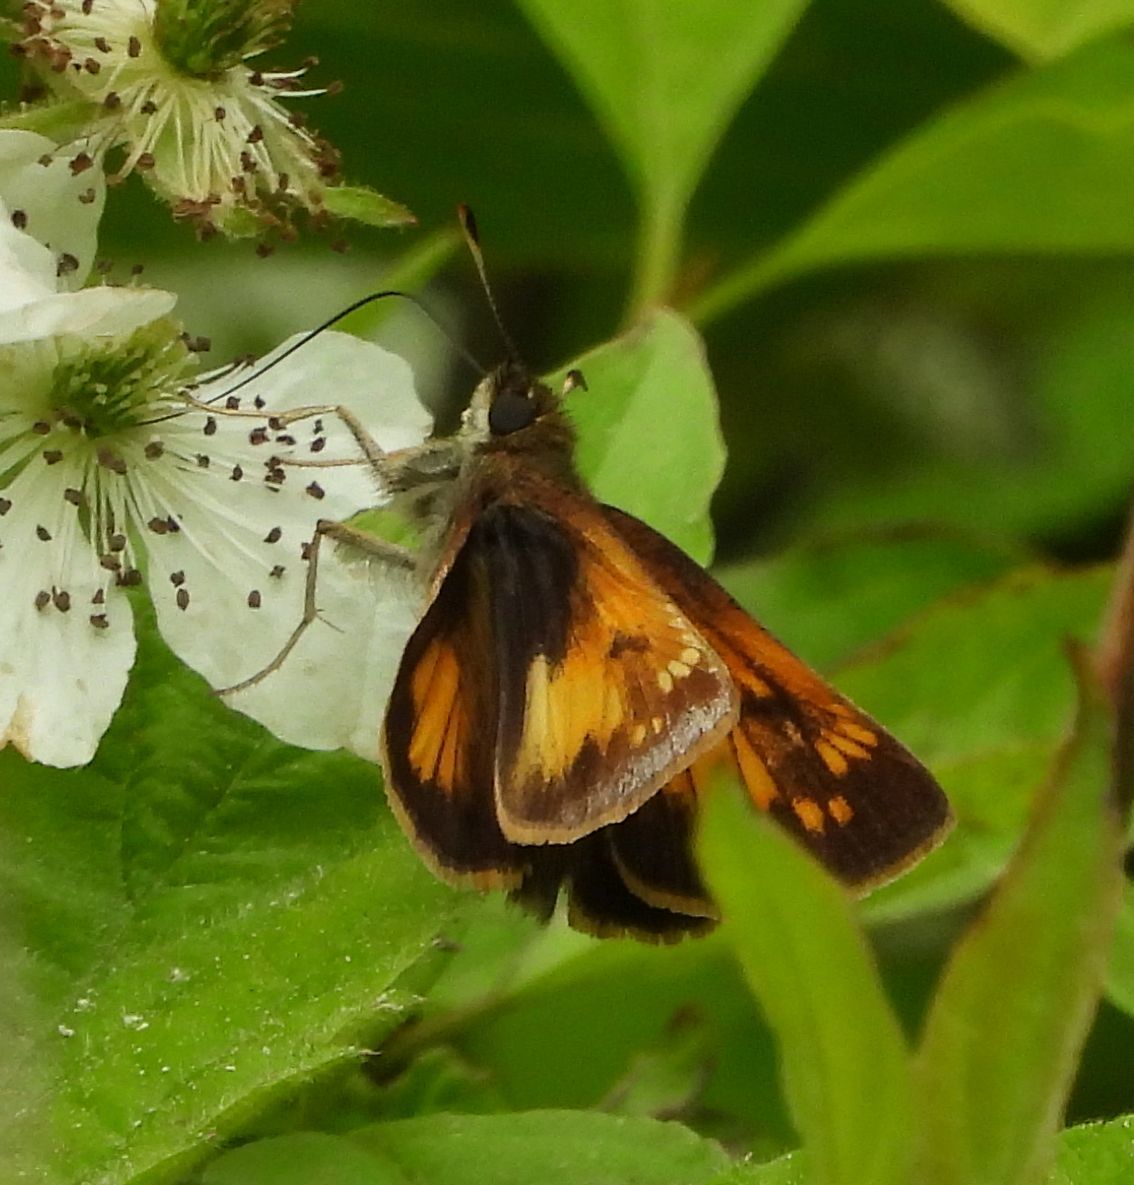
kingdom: Animalia
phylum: Arthropoda
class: Insecta
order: Lepidoptera
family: Hesperiidae
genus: Lon
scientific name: Lon hobomok
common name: Hobomok skipper
